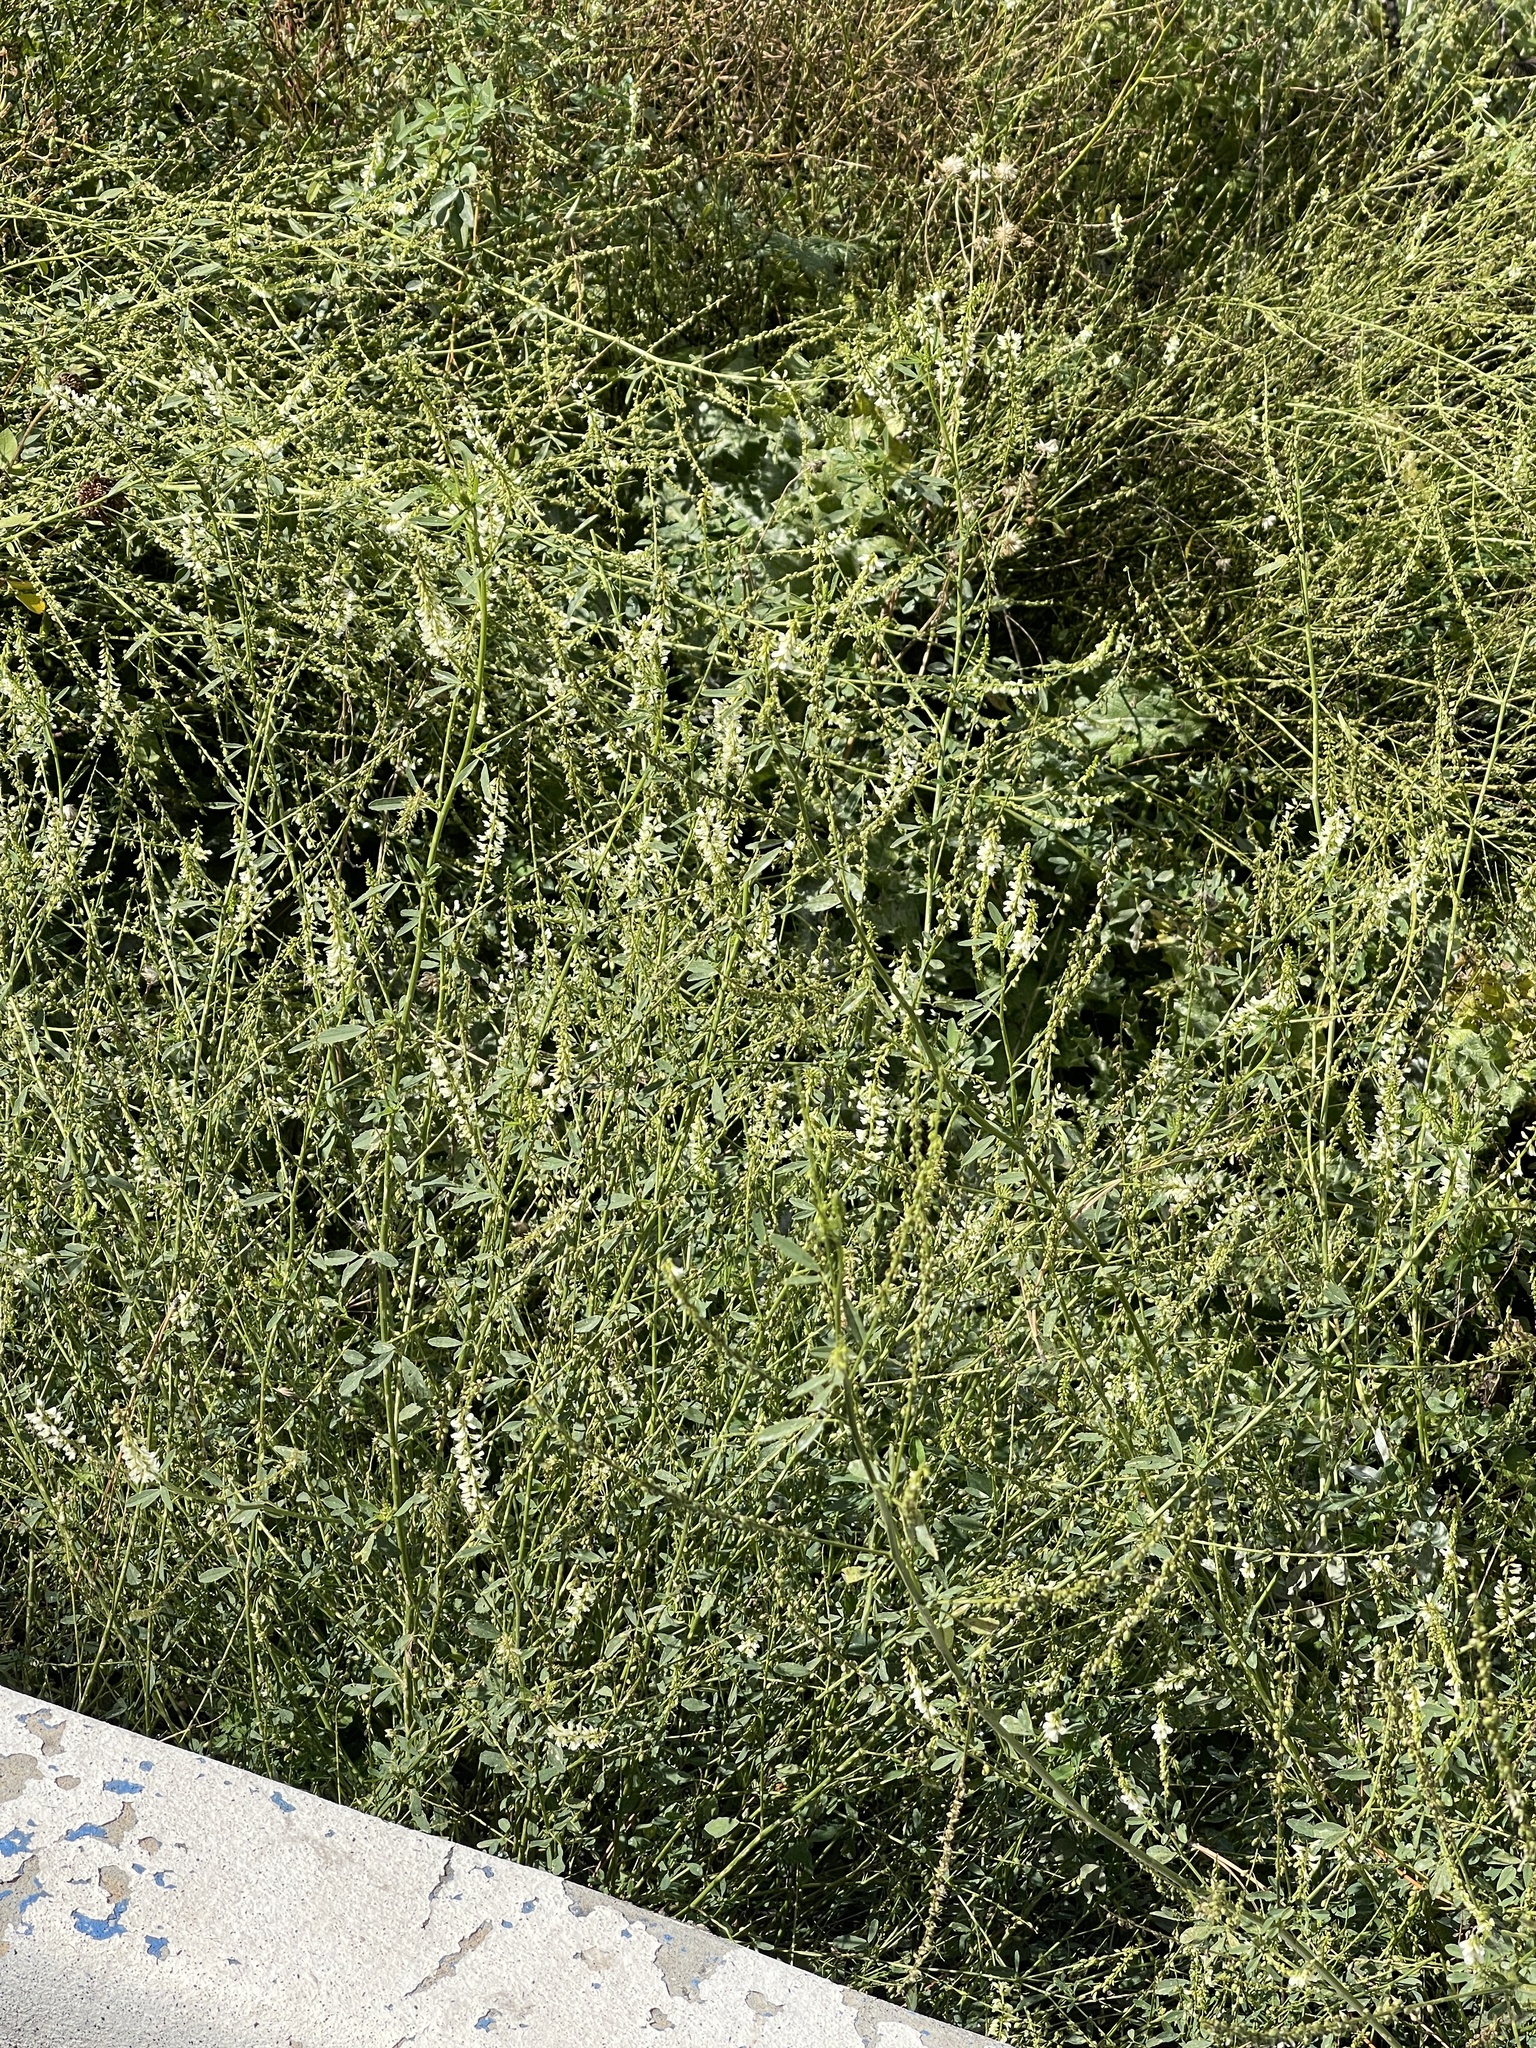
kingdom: Plantae
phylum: Tracheophyta
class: Magnoliopsida
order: Fabales
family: Fabaceae
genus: Melilotus
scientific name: Melilotus albus
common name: White melilot
